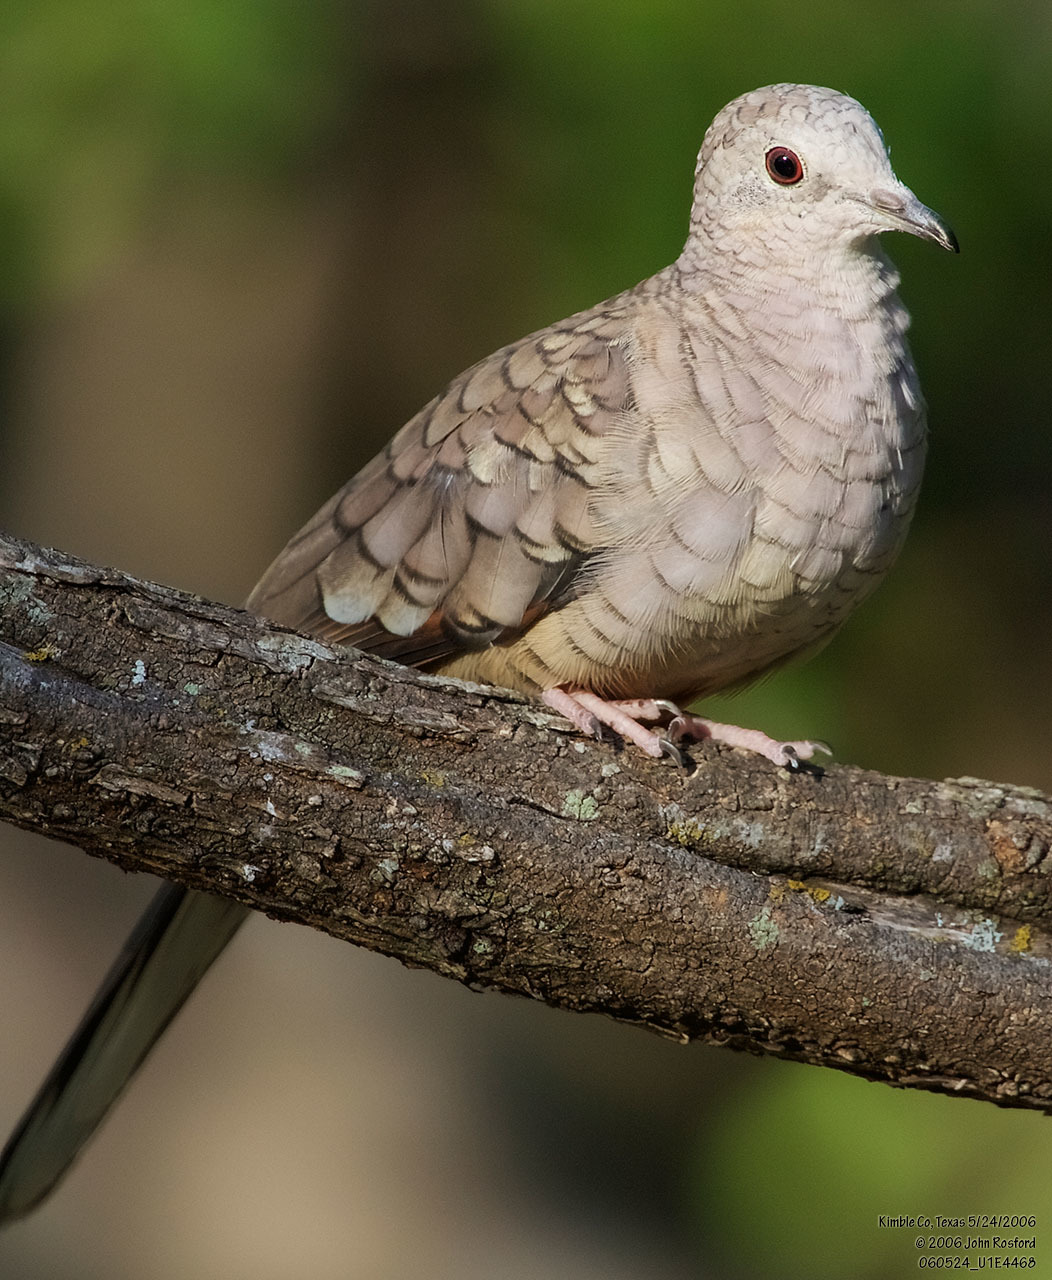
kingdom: Animalia
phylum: Chordata
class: Aves
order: Columbiformes
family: Columbidae
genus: Columbina
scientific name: Columbina inca
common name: Inca dove
